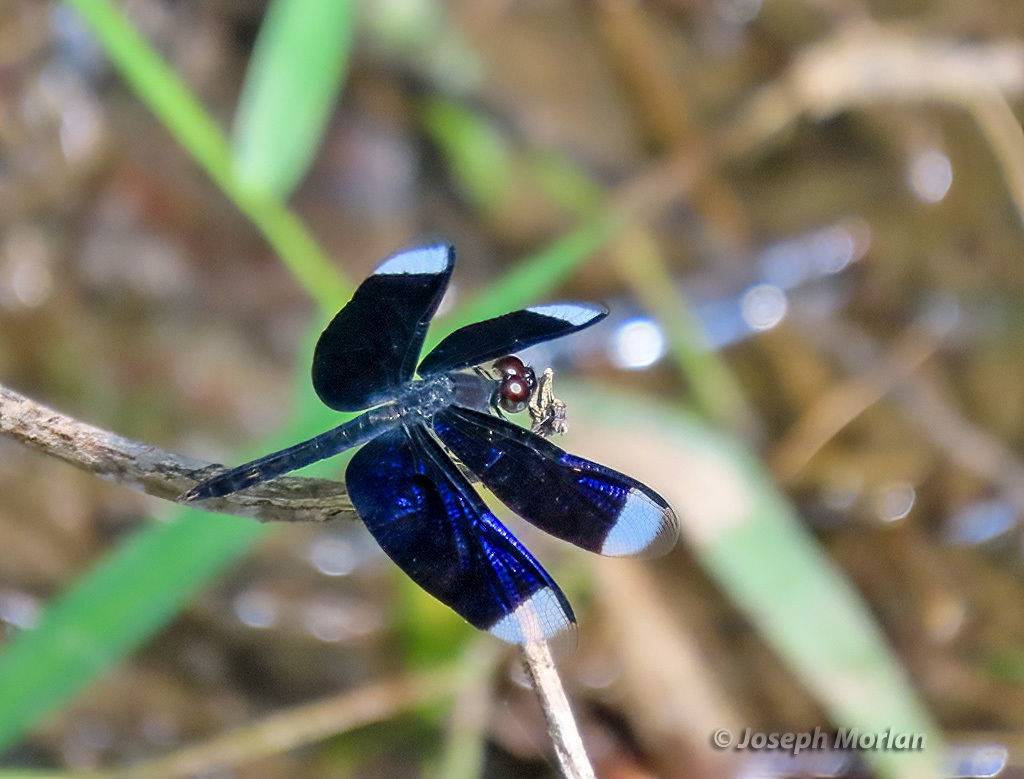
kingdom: Animalia
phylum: Arthropoda
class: Insecta
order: Odonata
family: Libellulidae
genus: Neurothemis
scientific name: Neurothemis decora
